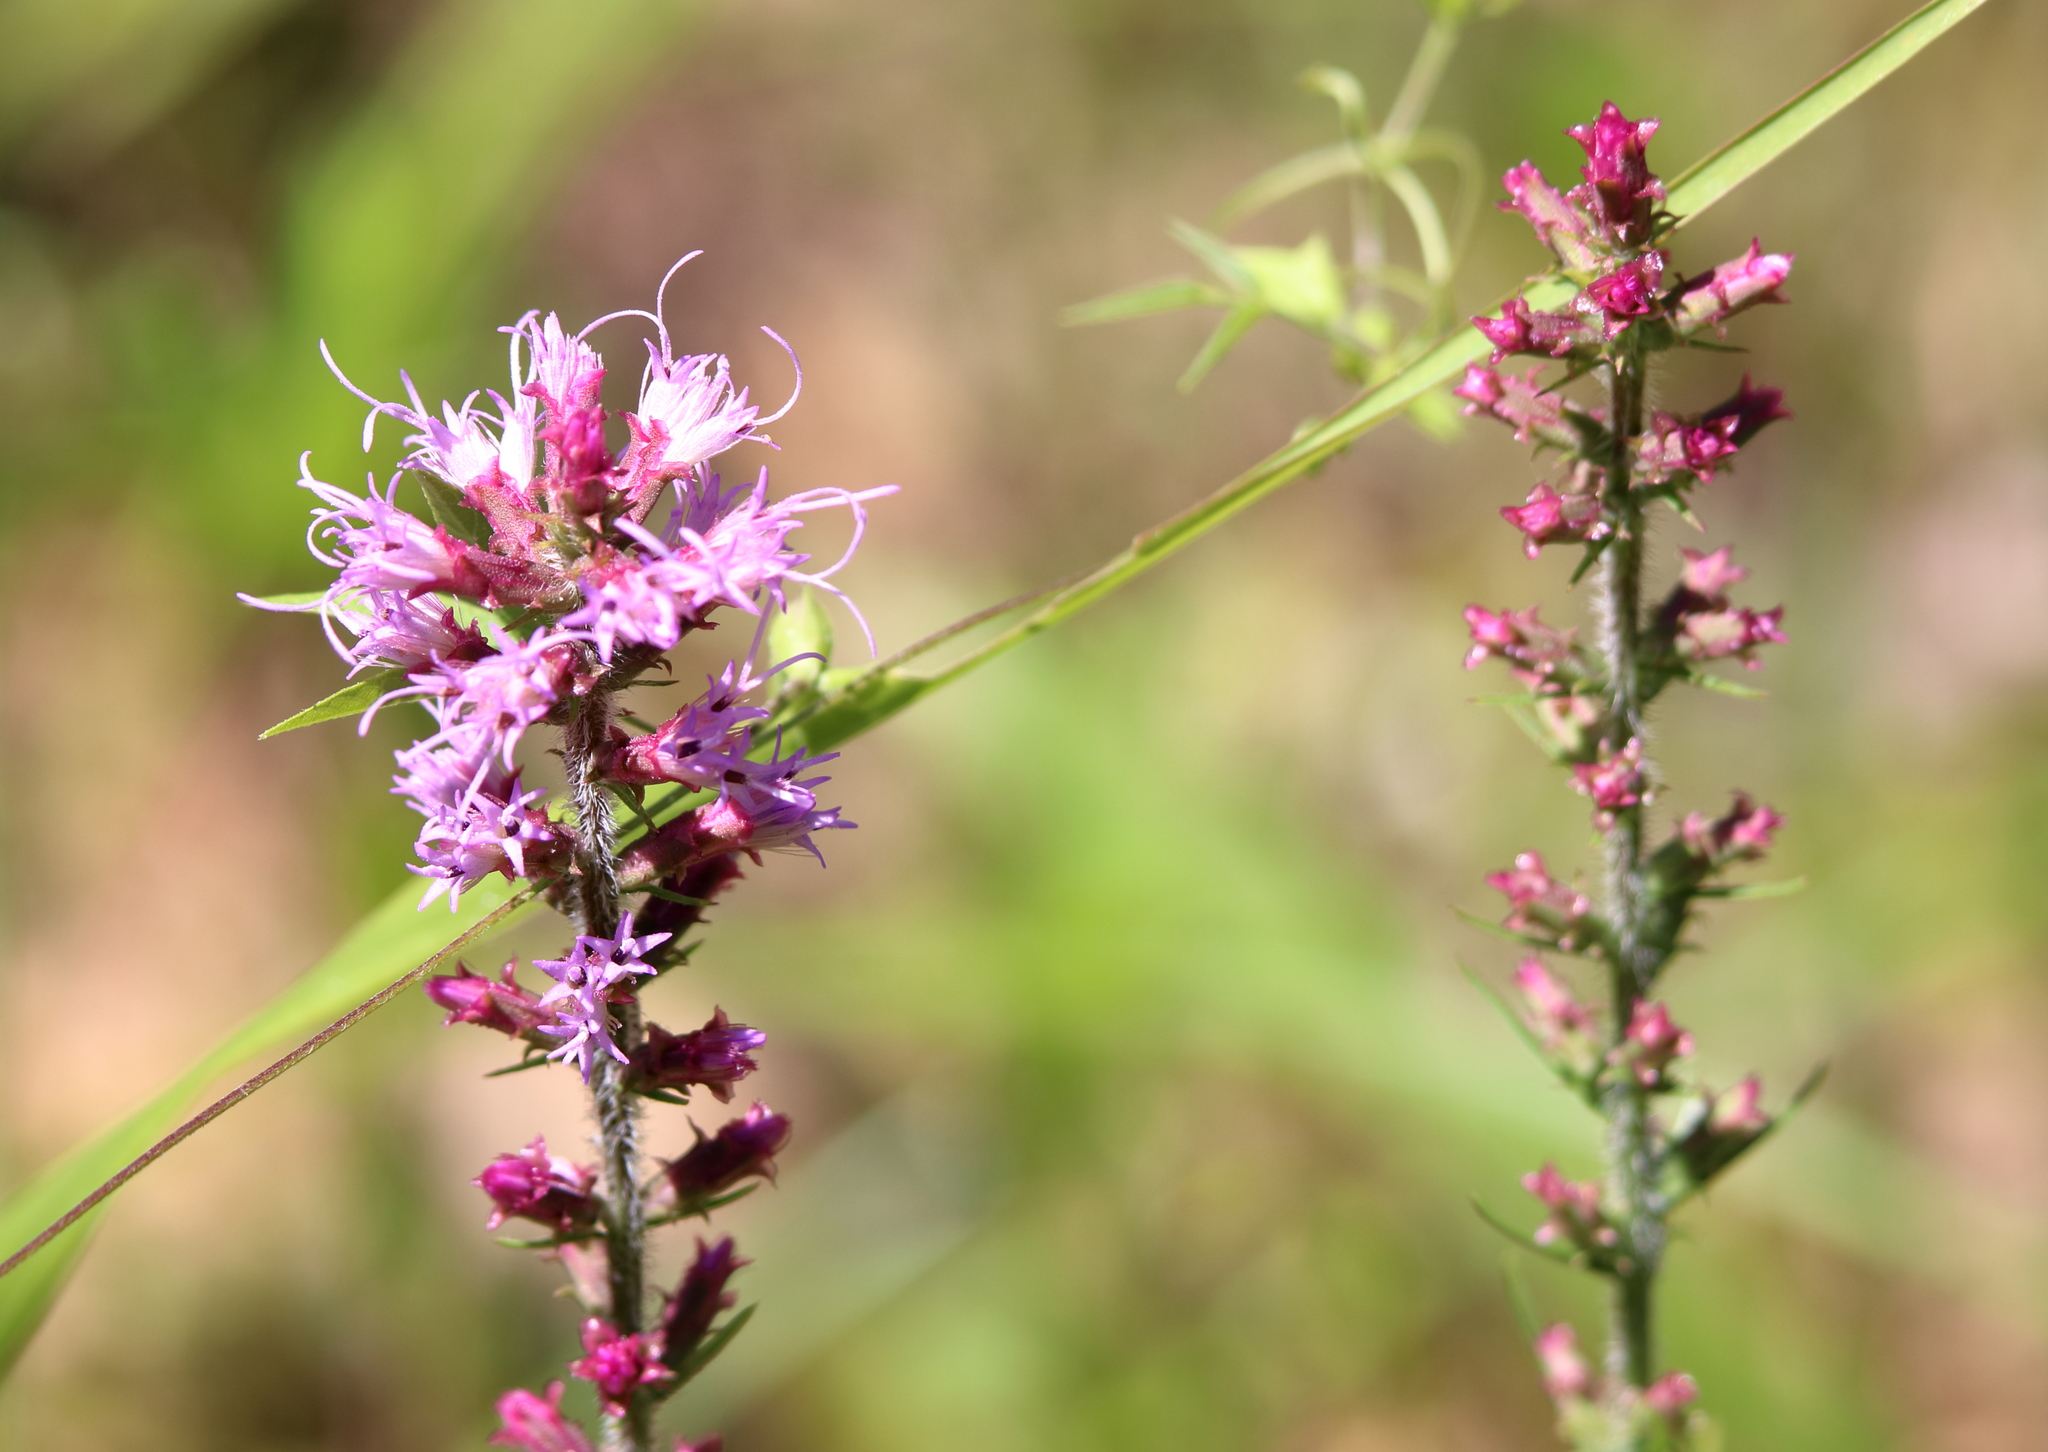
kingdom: Plantae
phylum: Tracheophyta
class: Magnoliopsida
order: Asterales
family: Asteraceae
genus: Liatris
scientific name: Liatris pycnostachya
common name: Cattail gayfeather
